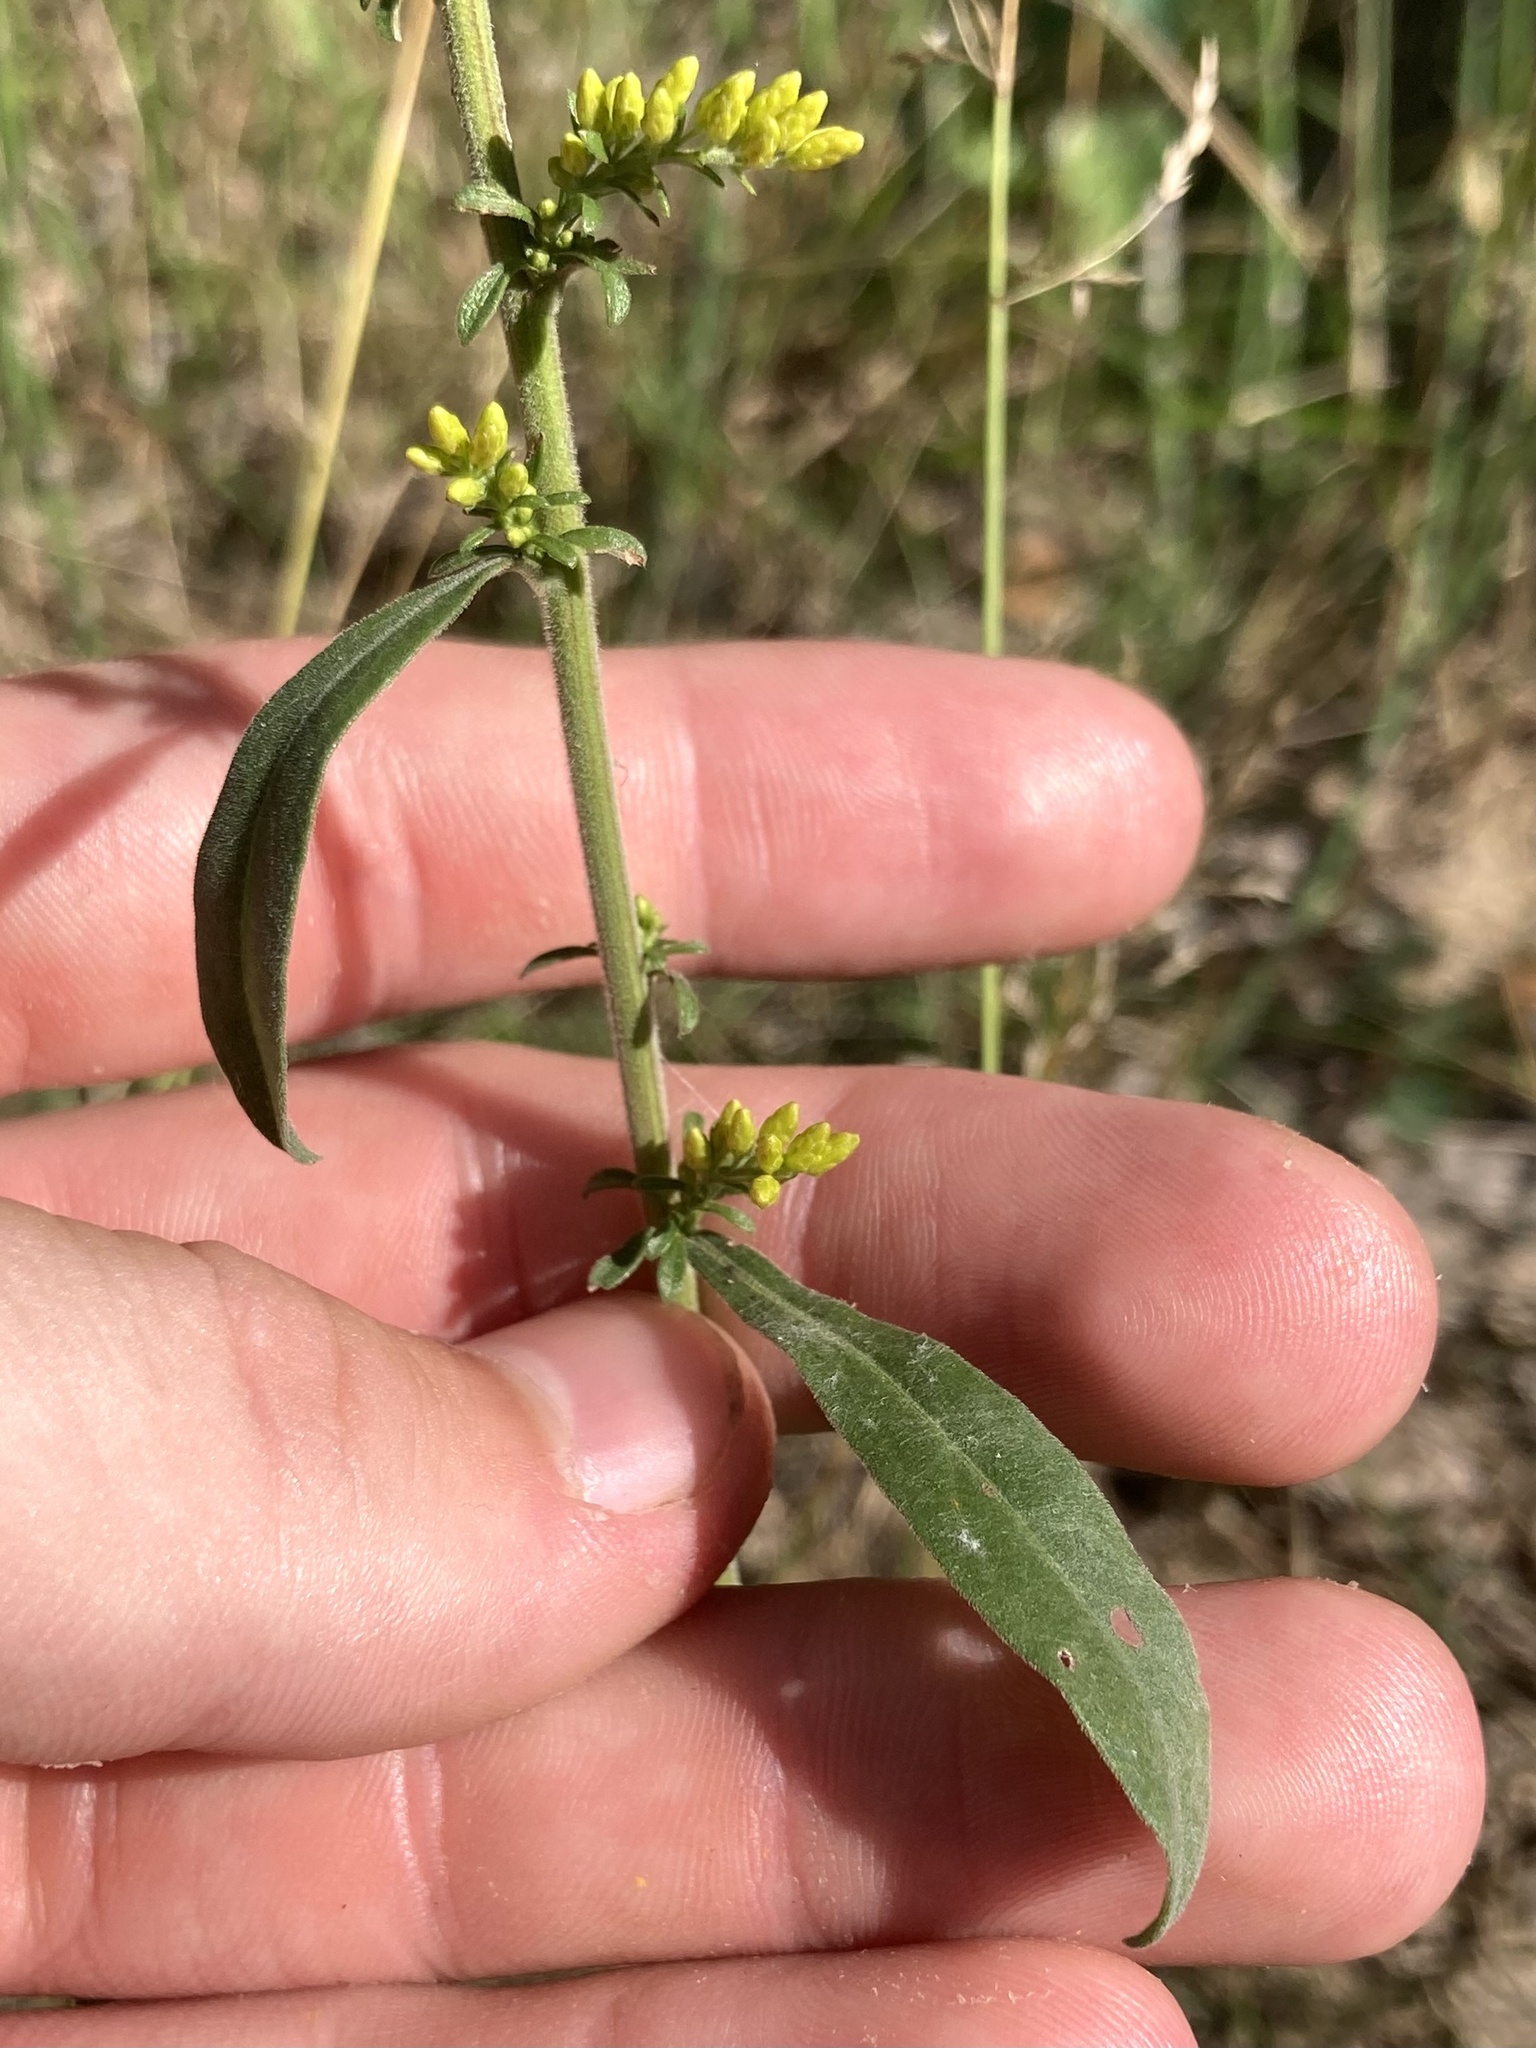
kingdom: Plantae
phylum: Tracheophyta
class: Magnoliopsida
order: Asterales
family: Asteraceae
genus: Solidago
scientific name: Solidago nemoralis
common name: Grey goldenrod
